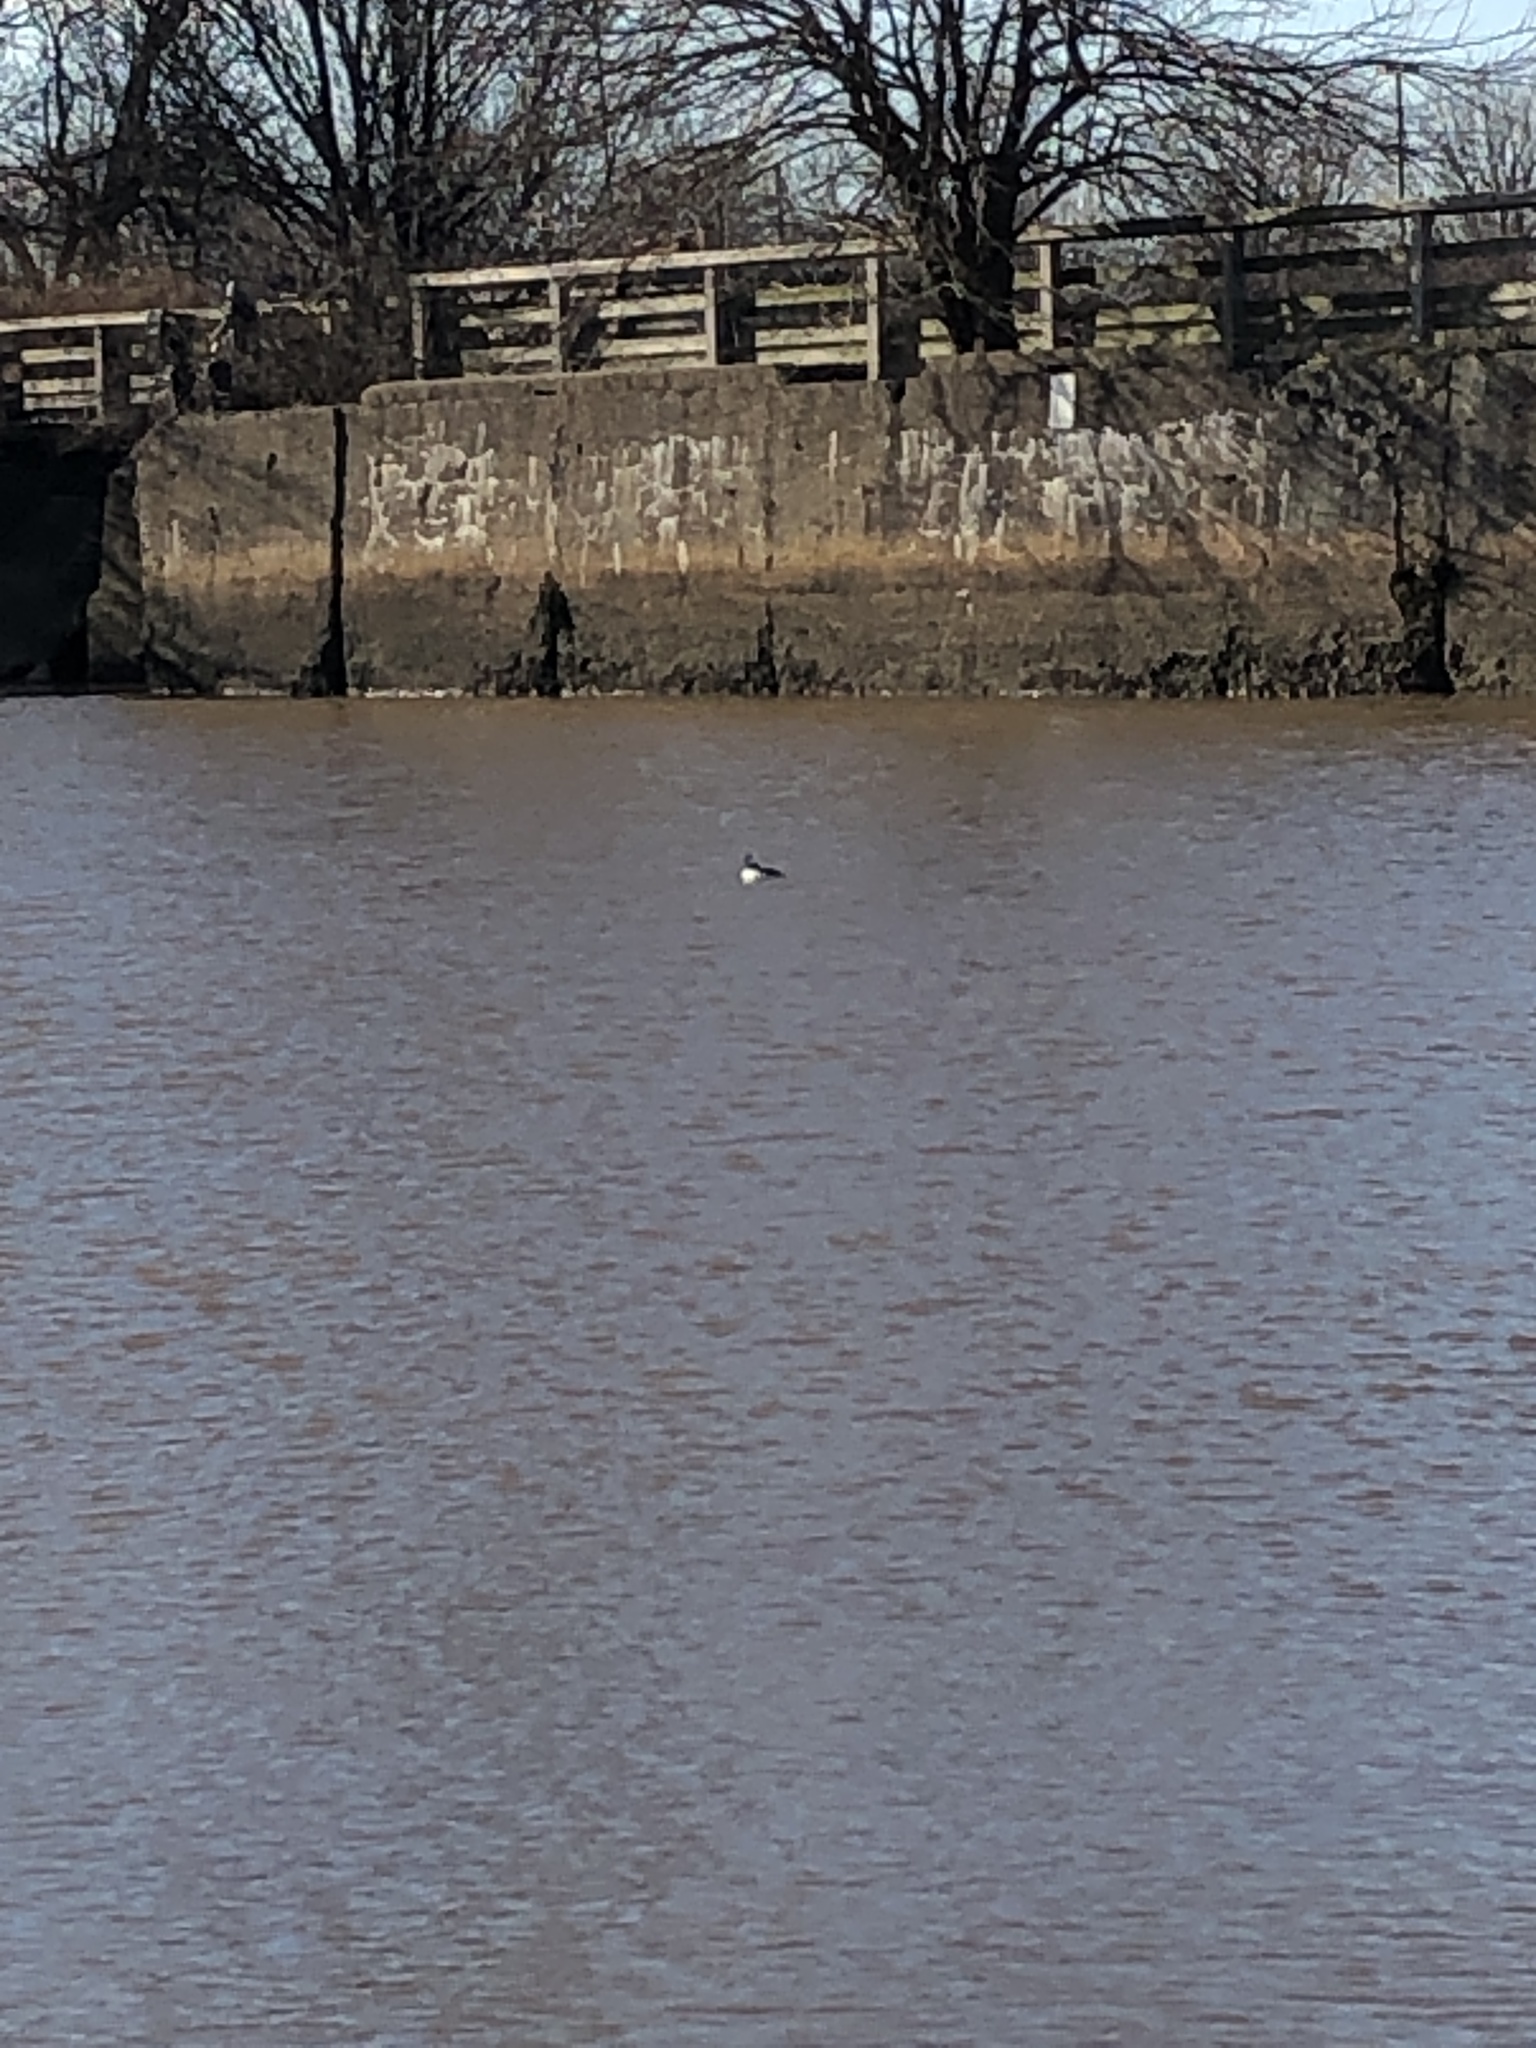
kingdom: Animalia
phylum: Chordata
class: Aves
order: Anseriformes
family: Anatidae
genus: Bucephala
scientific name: Bucephala albeola
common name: Bufflehead
